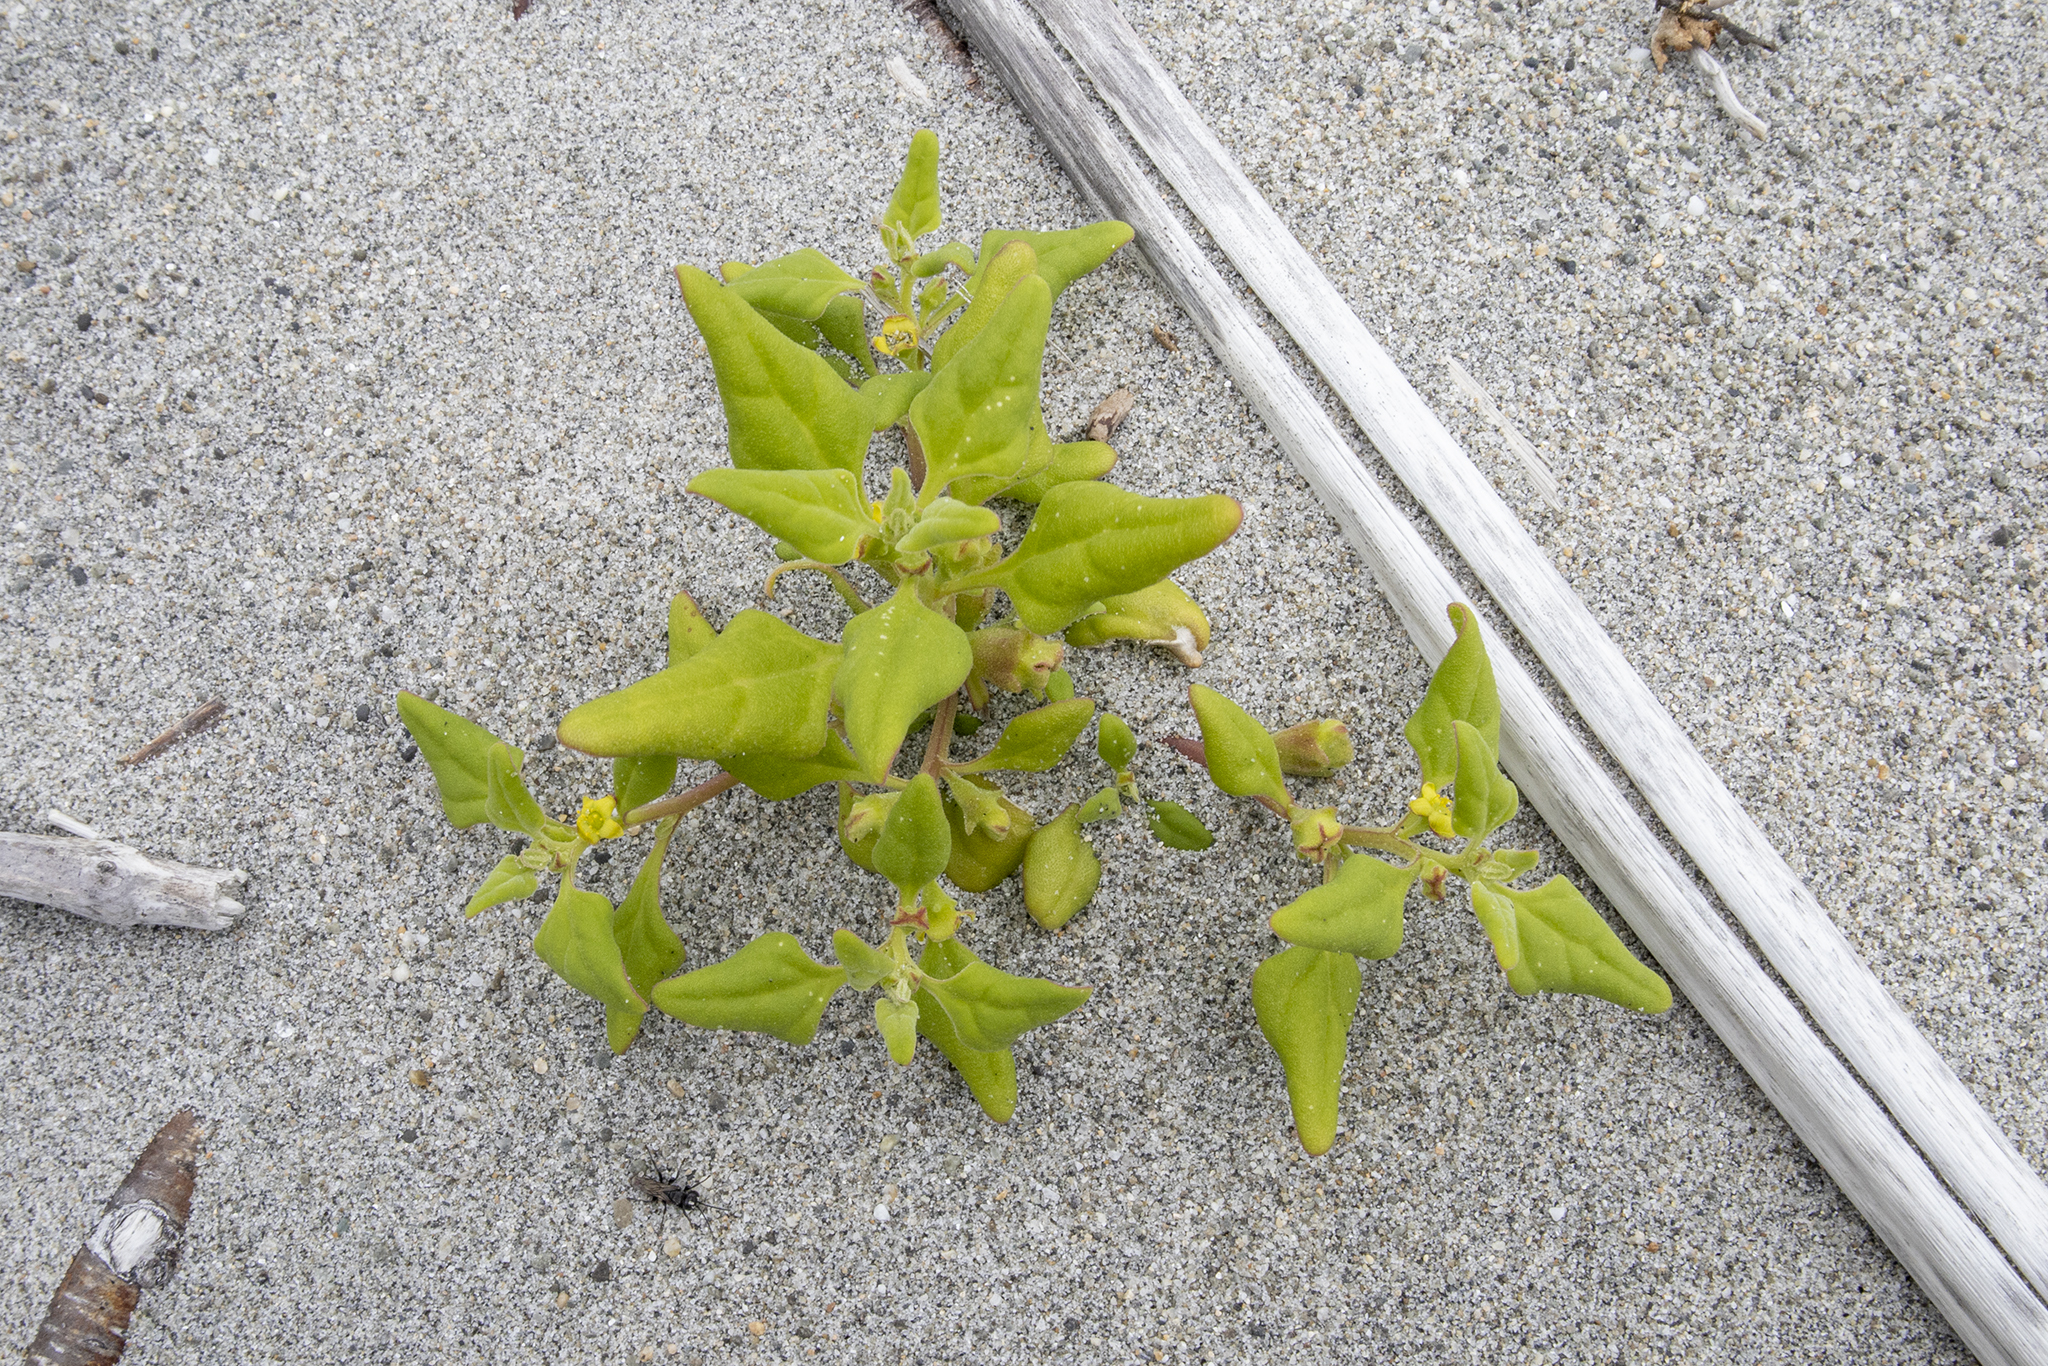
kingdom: Plantae
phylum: Tracheophyta
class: Magnoliopsida
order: Caryophyllales
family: Aizoaceae
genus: Tetragonia
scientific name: Tetragonia tetragonoides
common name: New zealand-spinach
